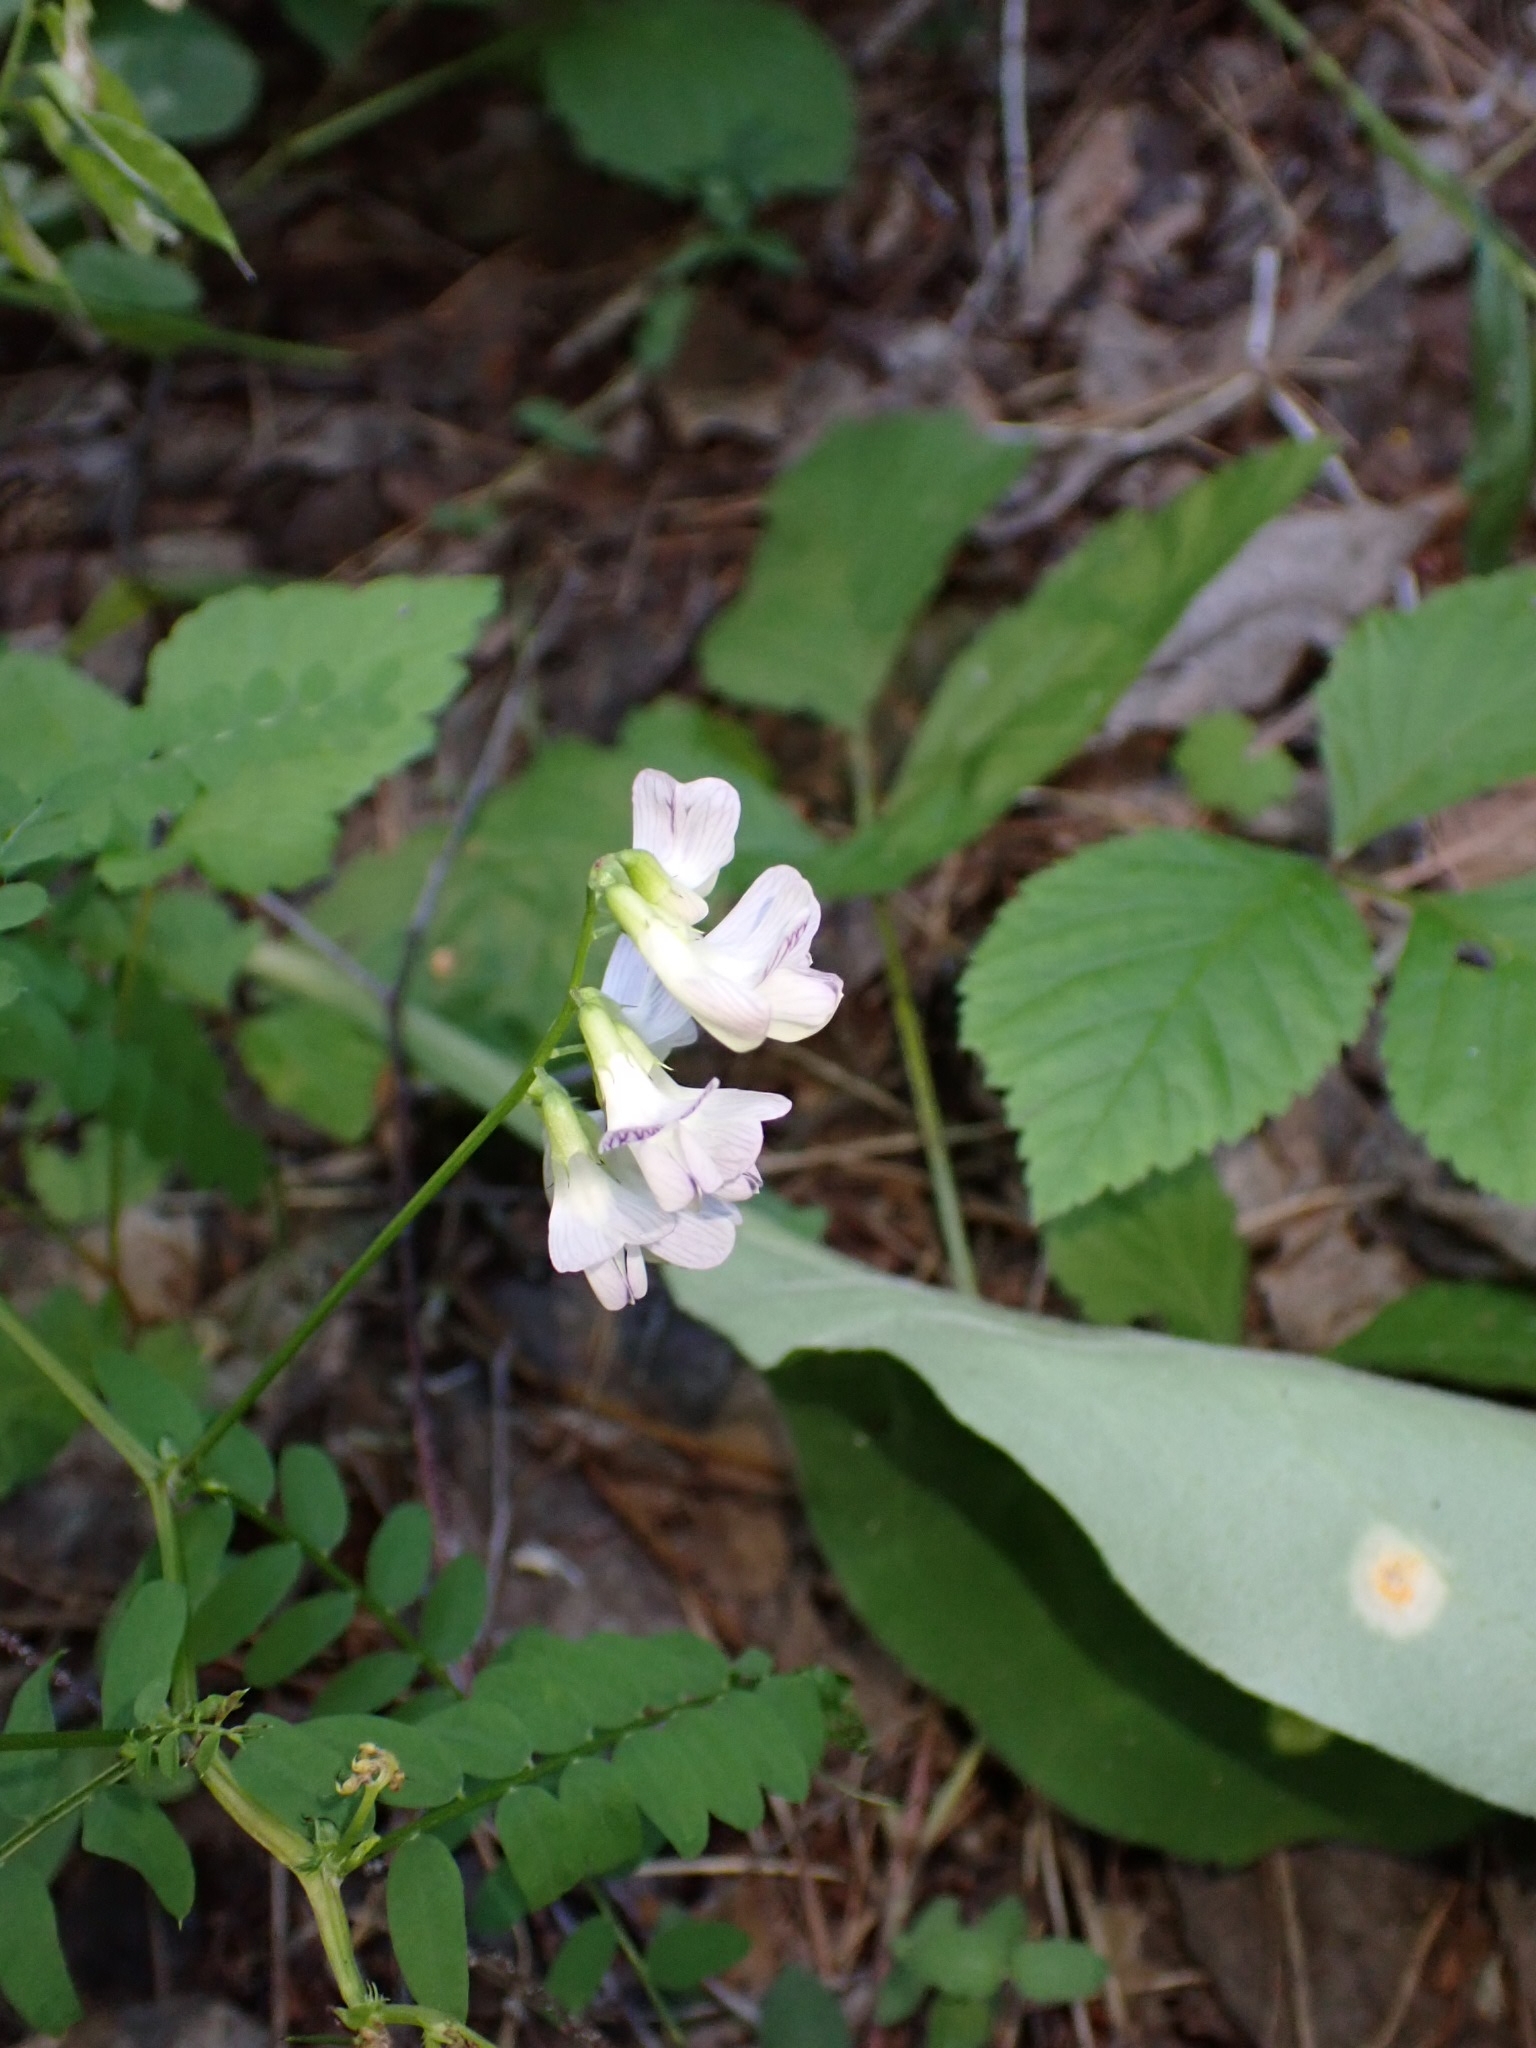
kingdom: Plantae
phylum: Tracheophyta
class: Magnoliopsida
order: Fabales
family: Fabaceae
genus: Vicia
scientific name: Vicia sylvatica
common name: Wood vetch
